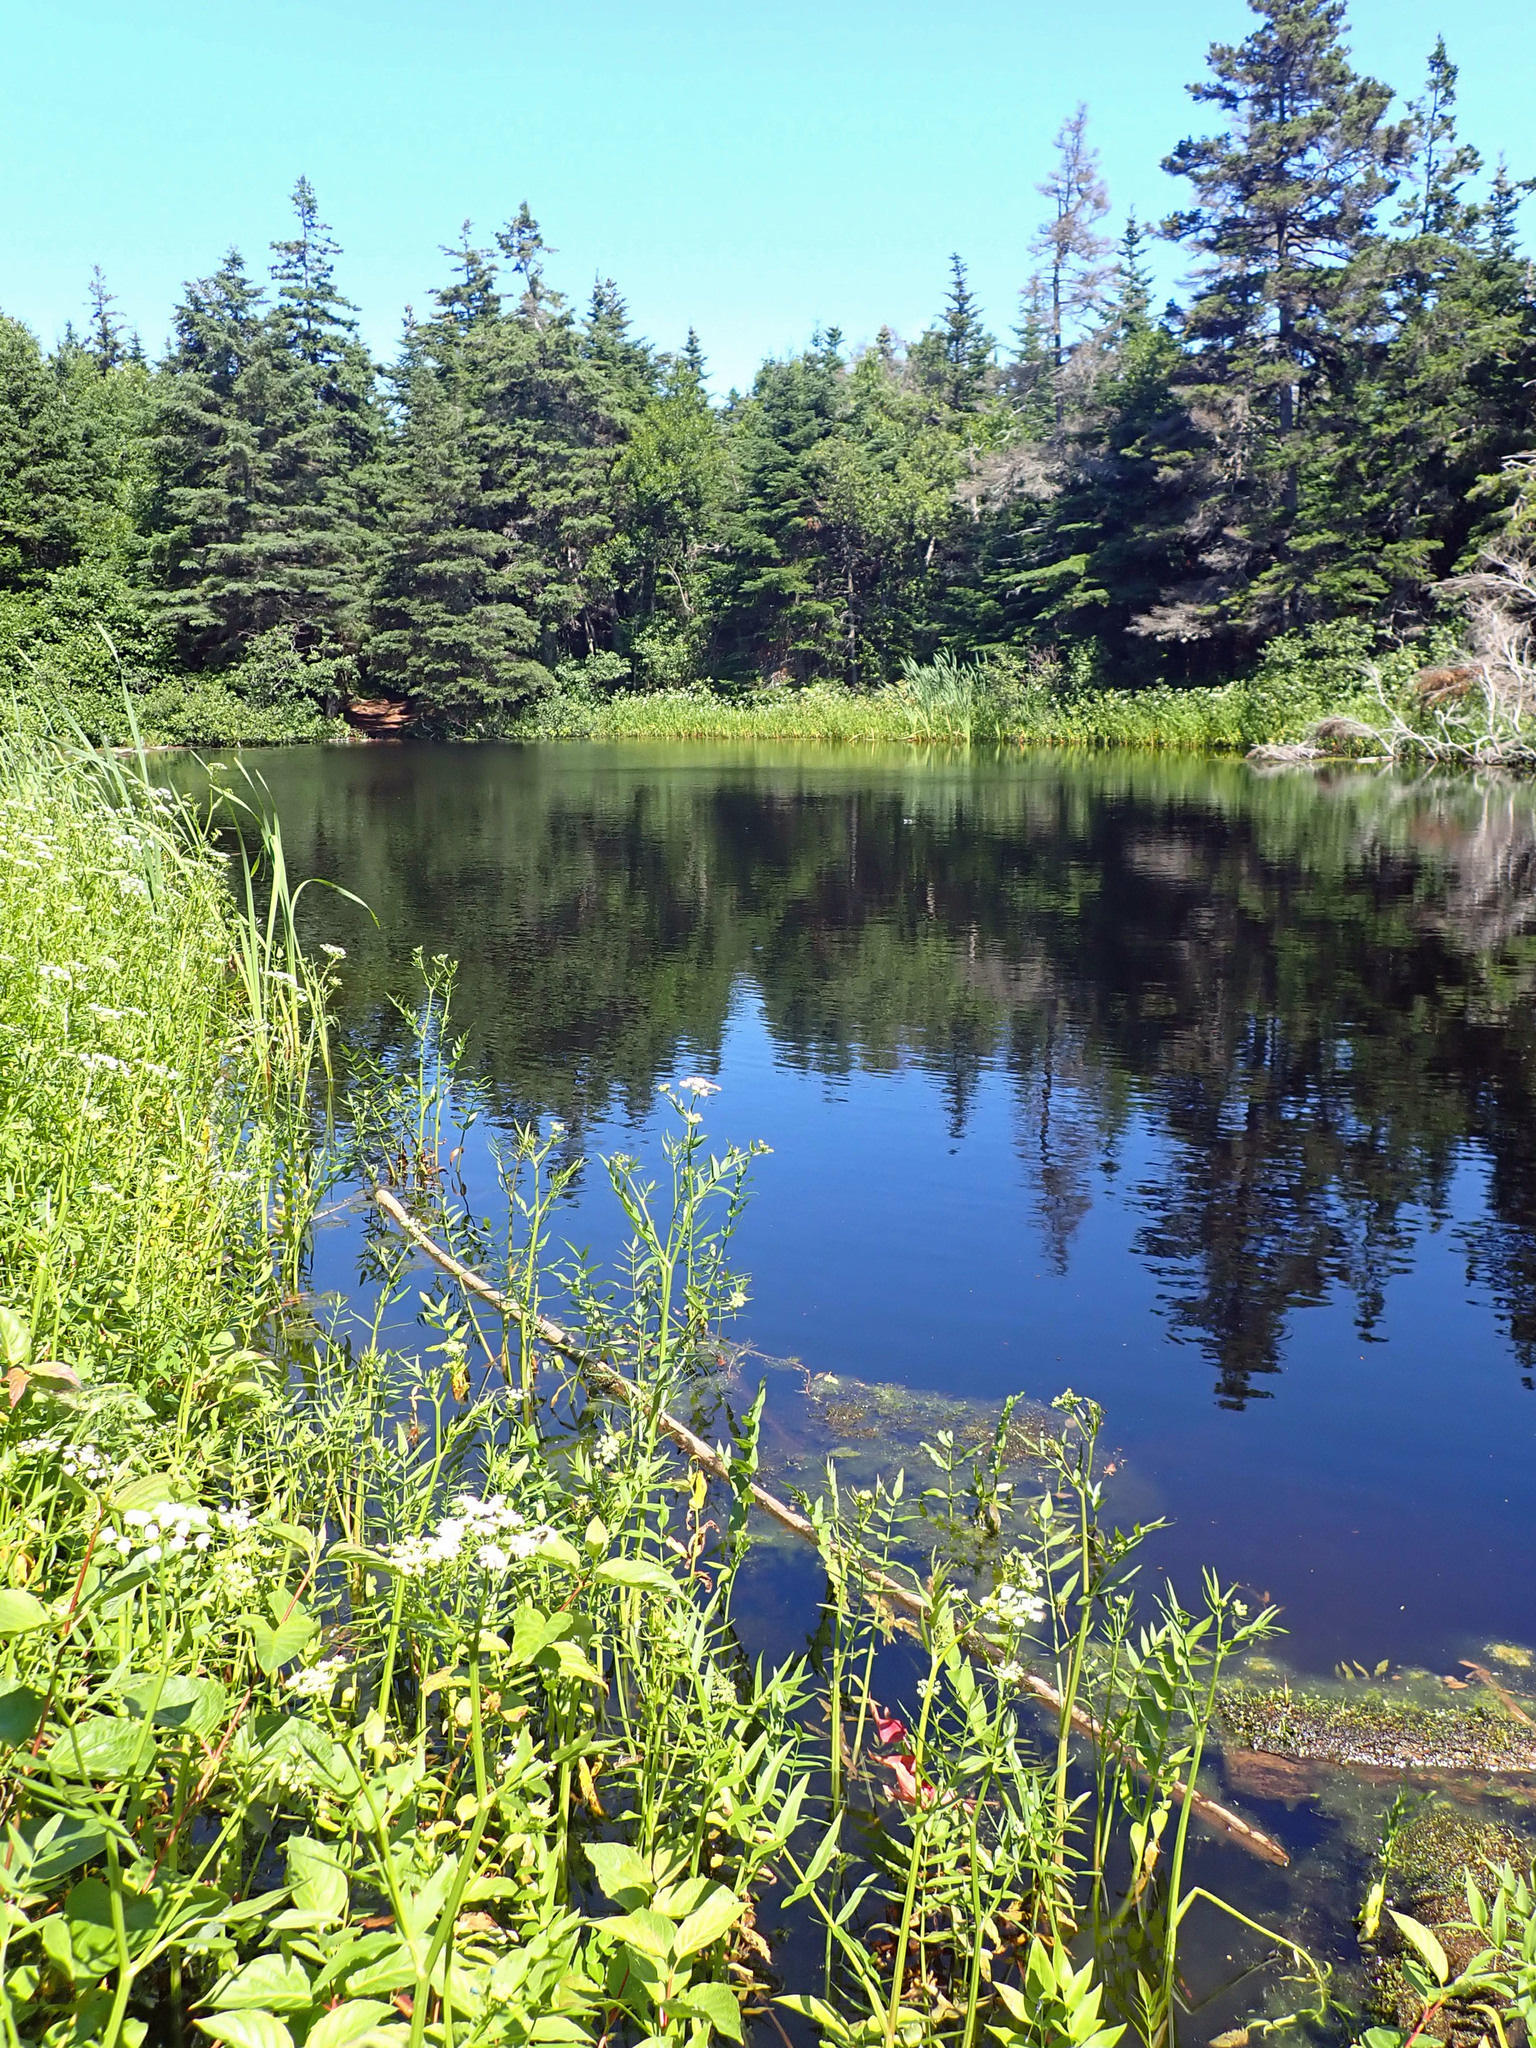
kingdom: Plantae
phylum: Tracheophyta
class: Magnoliopsida
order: Apiales
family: Apiaceae
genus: Sium
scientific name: Sium suave
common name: Hemlock water-parsnip
